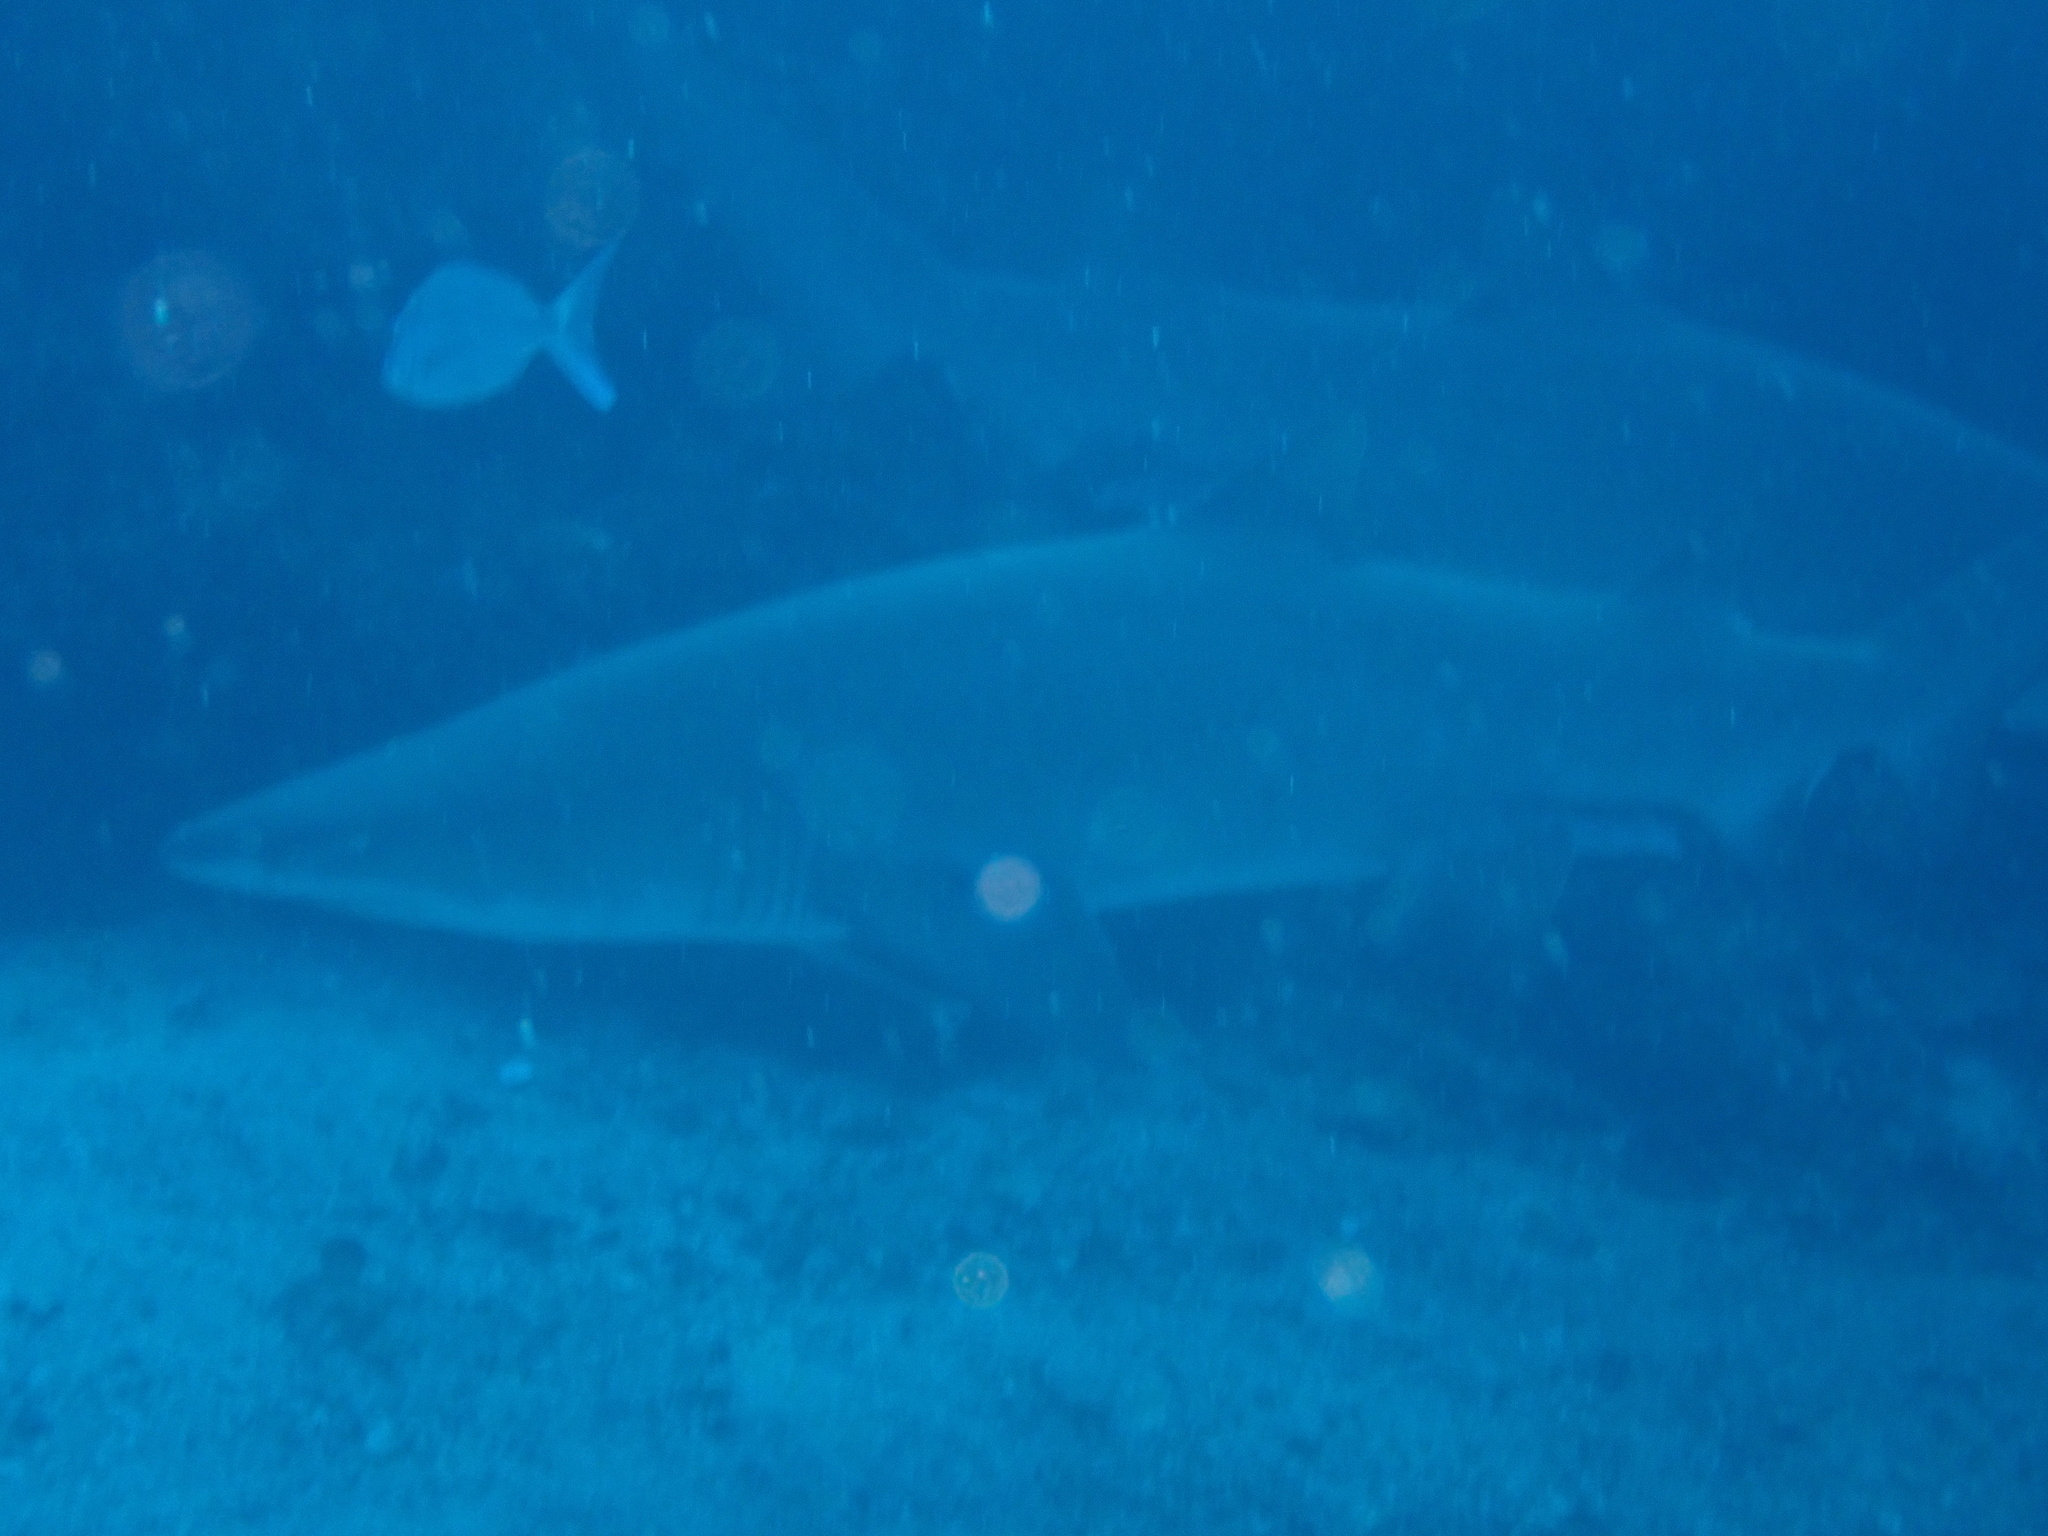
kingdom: Animalia
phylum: Chordata
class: Elasmobranchii
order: Lamniformes
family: Odontaspididae
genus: Carcharias
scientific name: Carcharias taurus
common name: Sand shark
